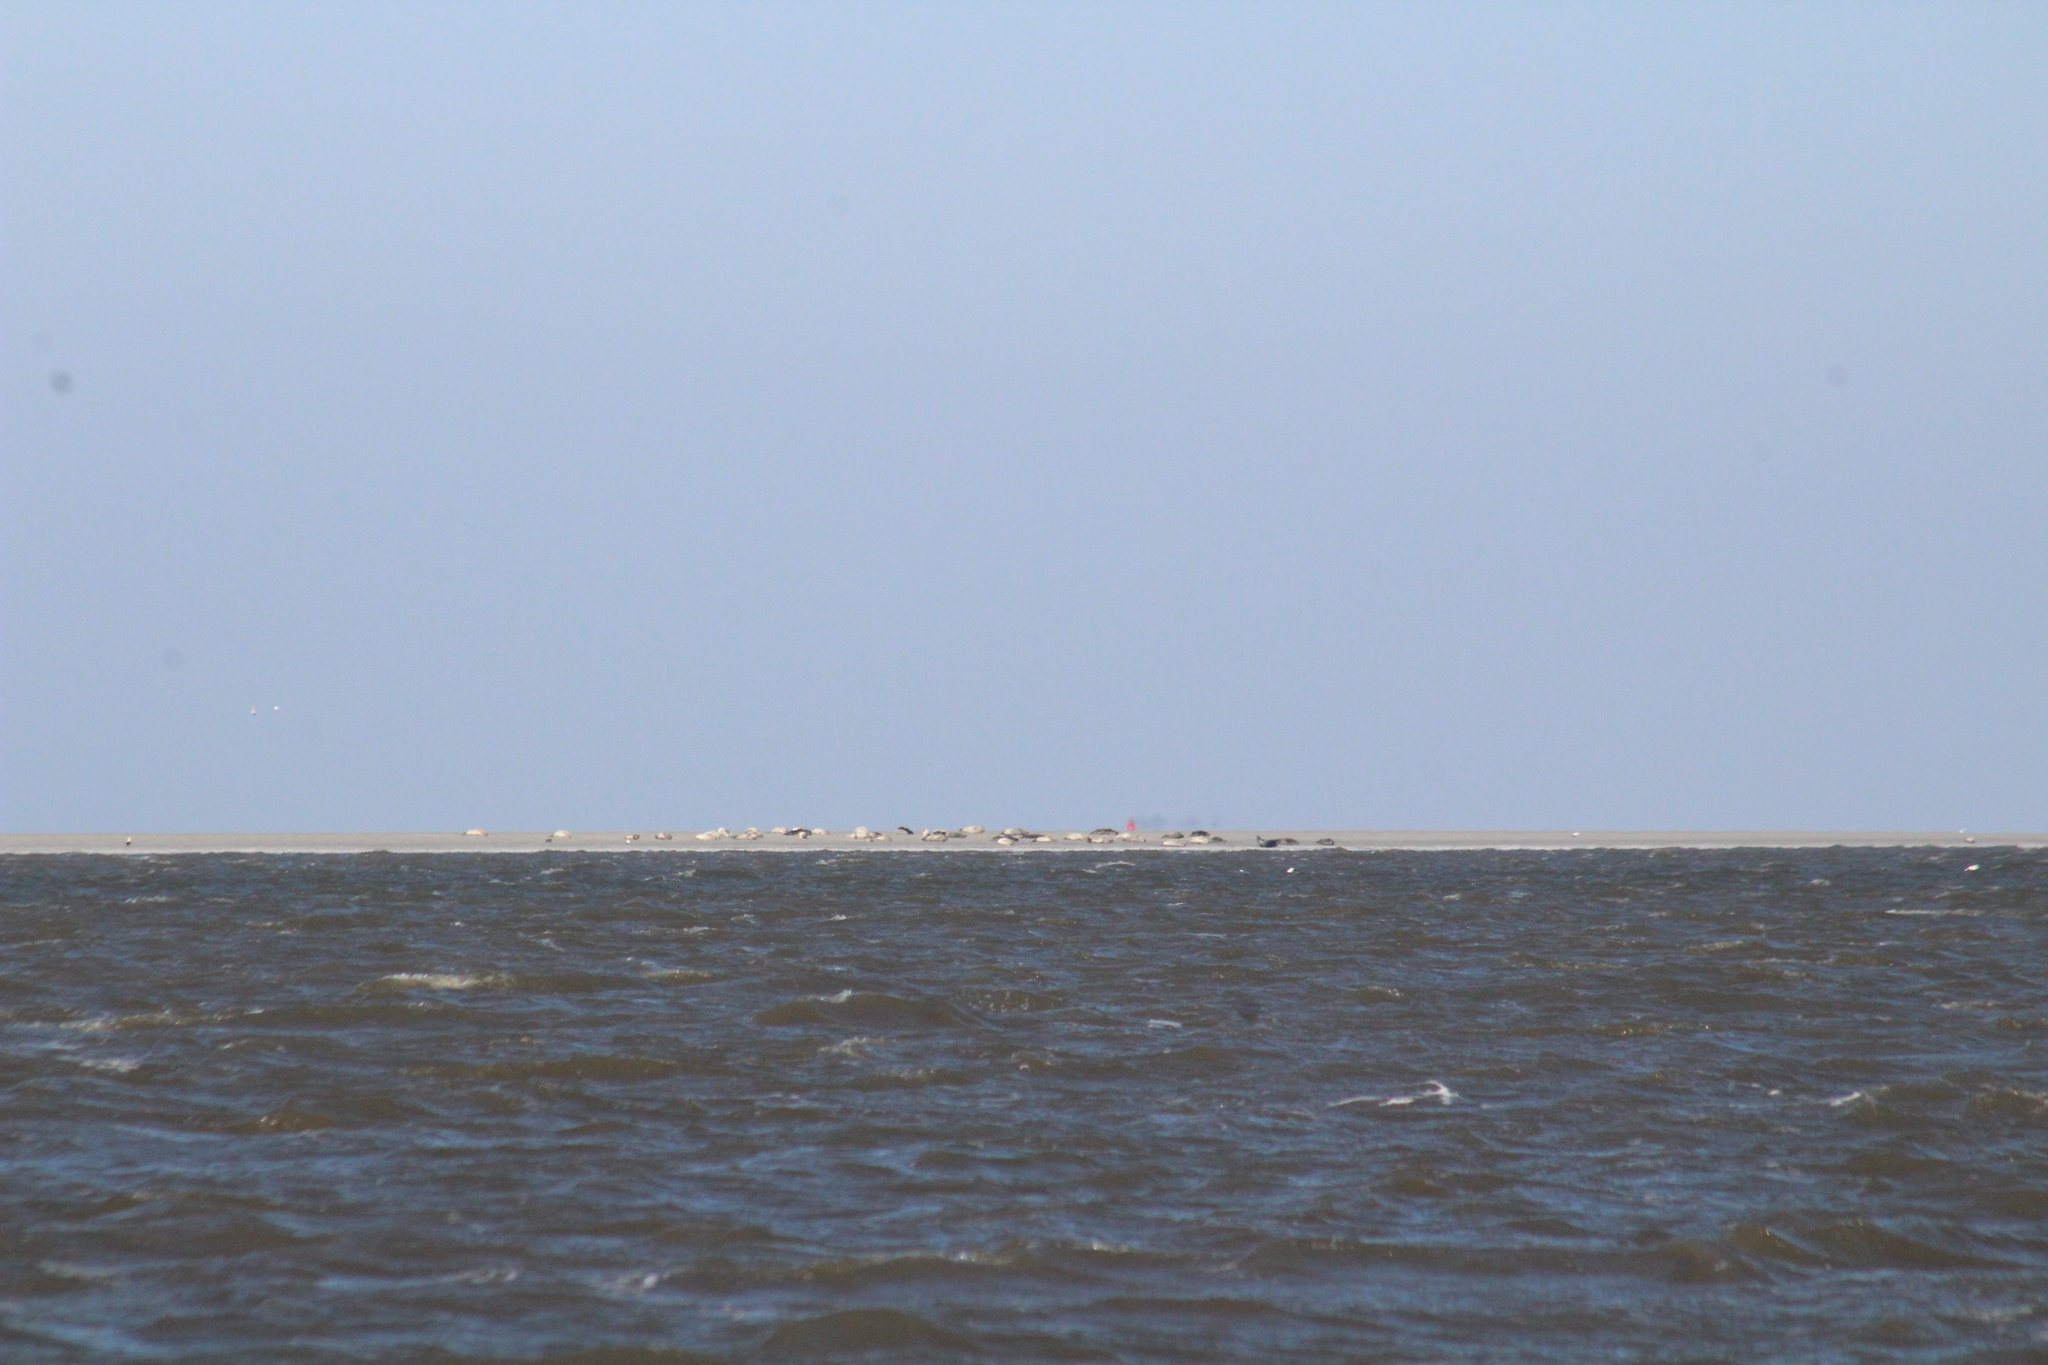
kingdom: Animalia
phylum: Chordata
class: Mammalia
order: Carnivora
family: Phocidae
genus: Phoca
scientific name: Phoca vitulina
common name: Harbor seal
